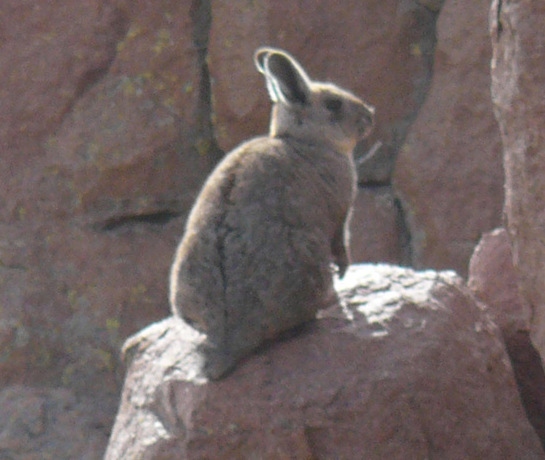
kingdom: Animalia
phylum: Chordata
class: Mammalia
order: Rodentia
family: Chinchillidae
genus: Lagidium
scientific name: Lagidium viscacia
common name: Southern viscacha
